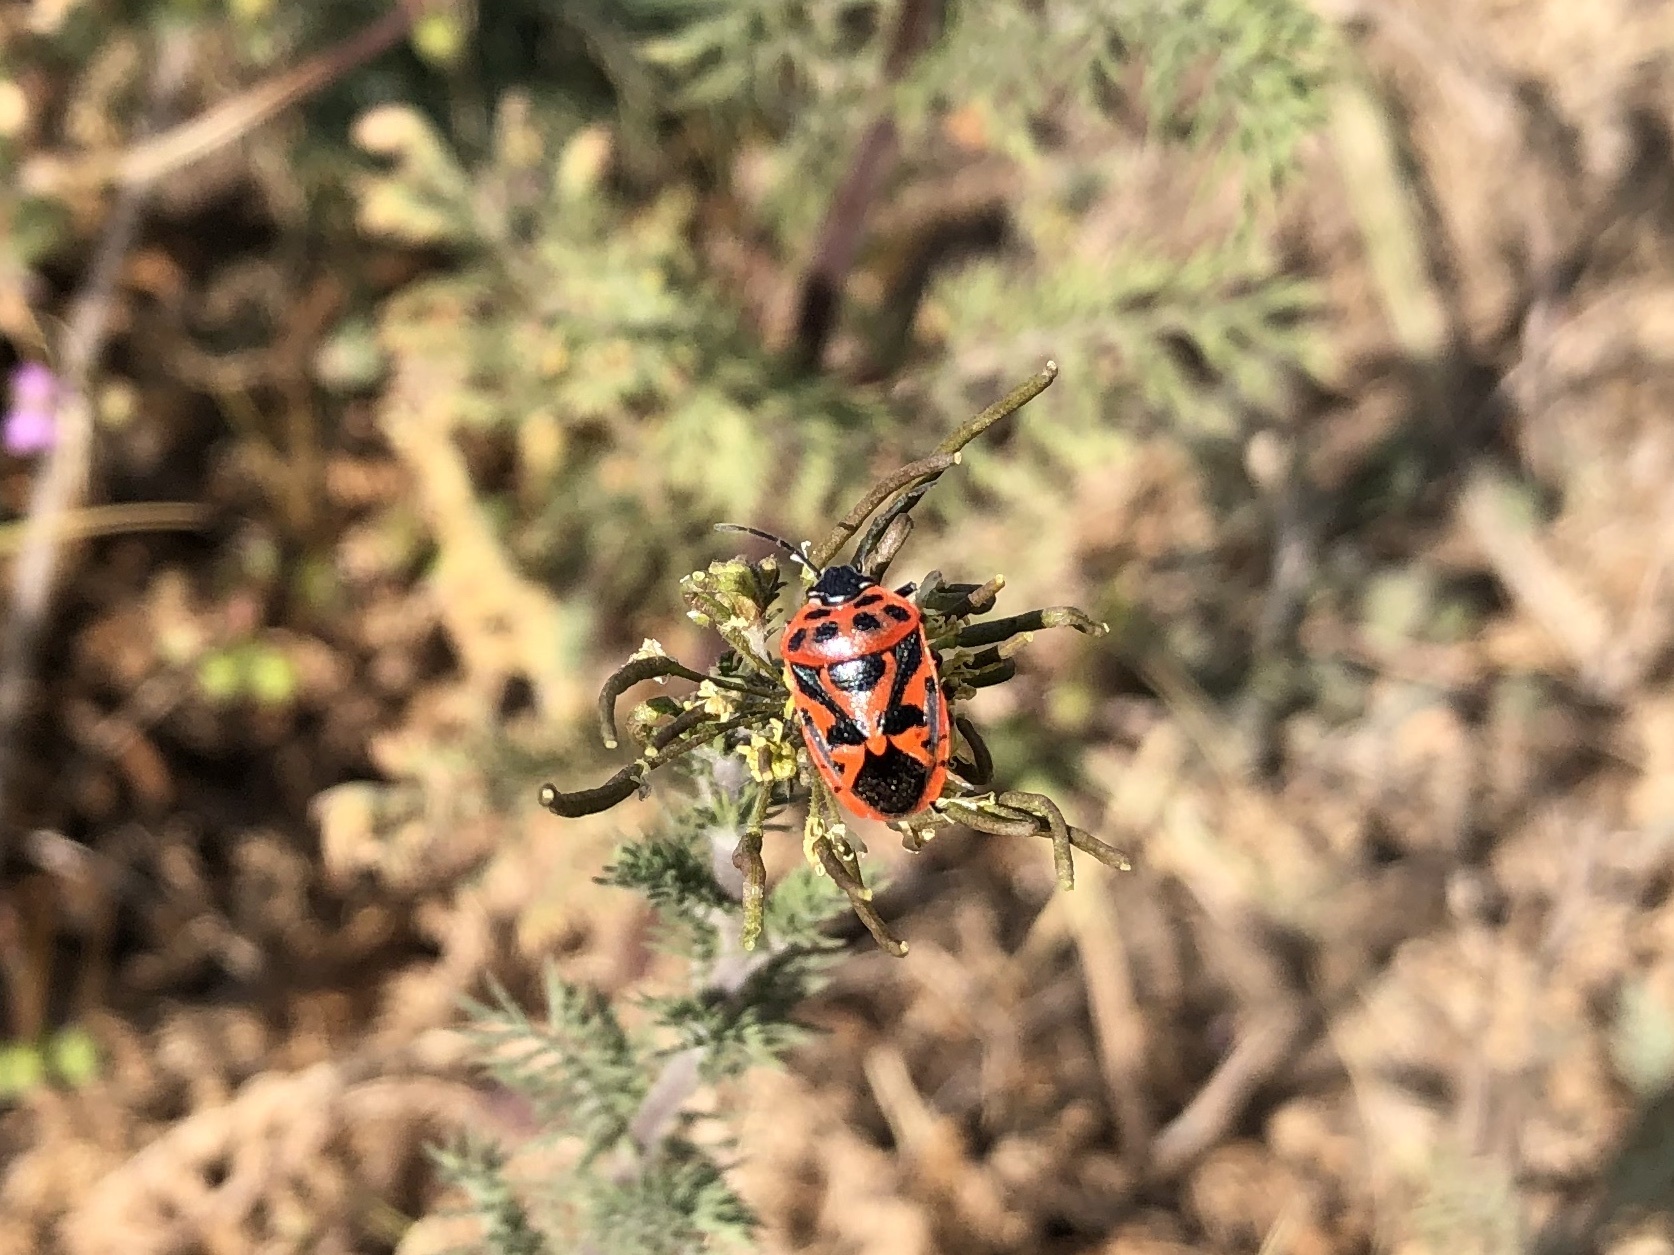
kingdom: Animalia
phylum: Arthropoda
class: Insecta
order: Hemiptera
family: Pentatomidae
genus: Eurydema
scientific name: Eurydema ornata
